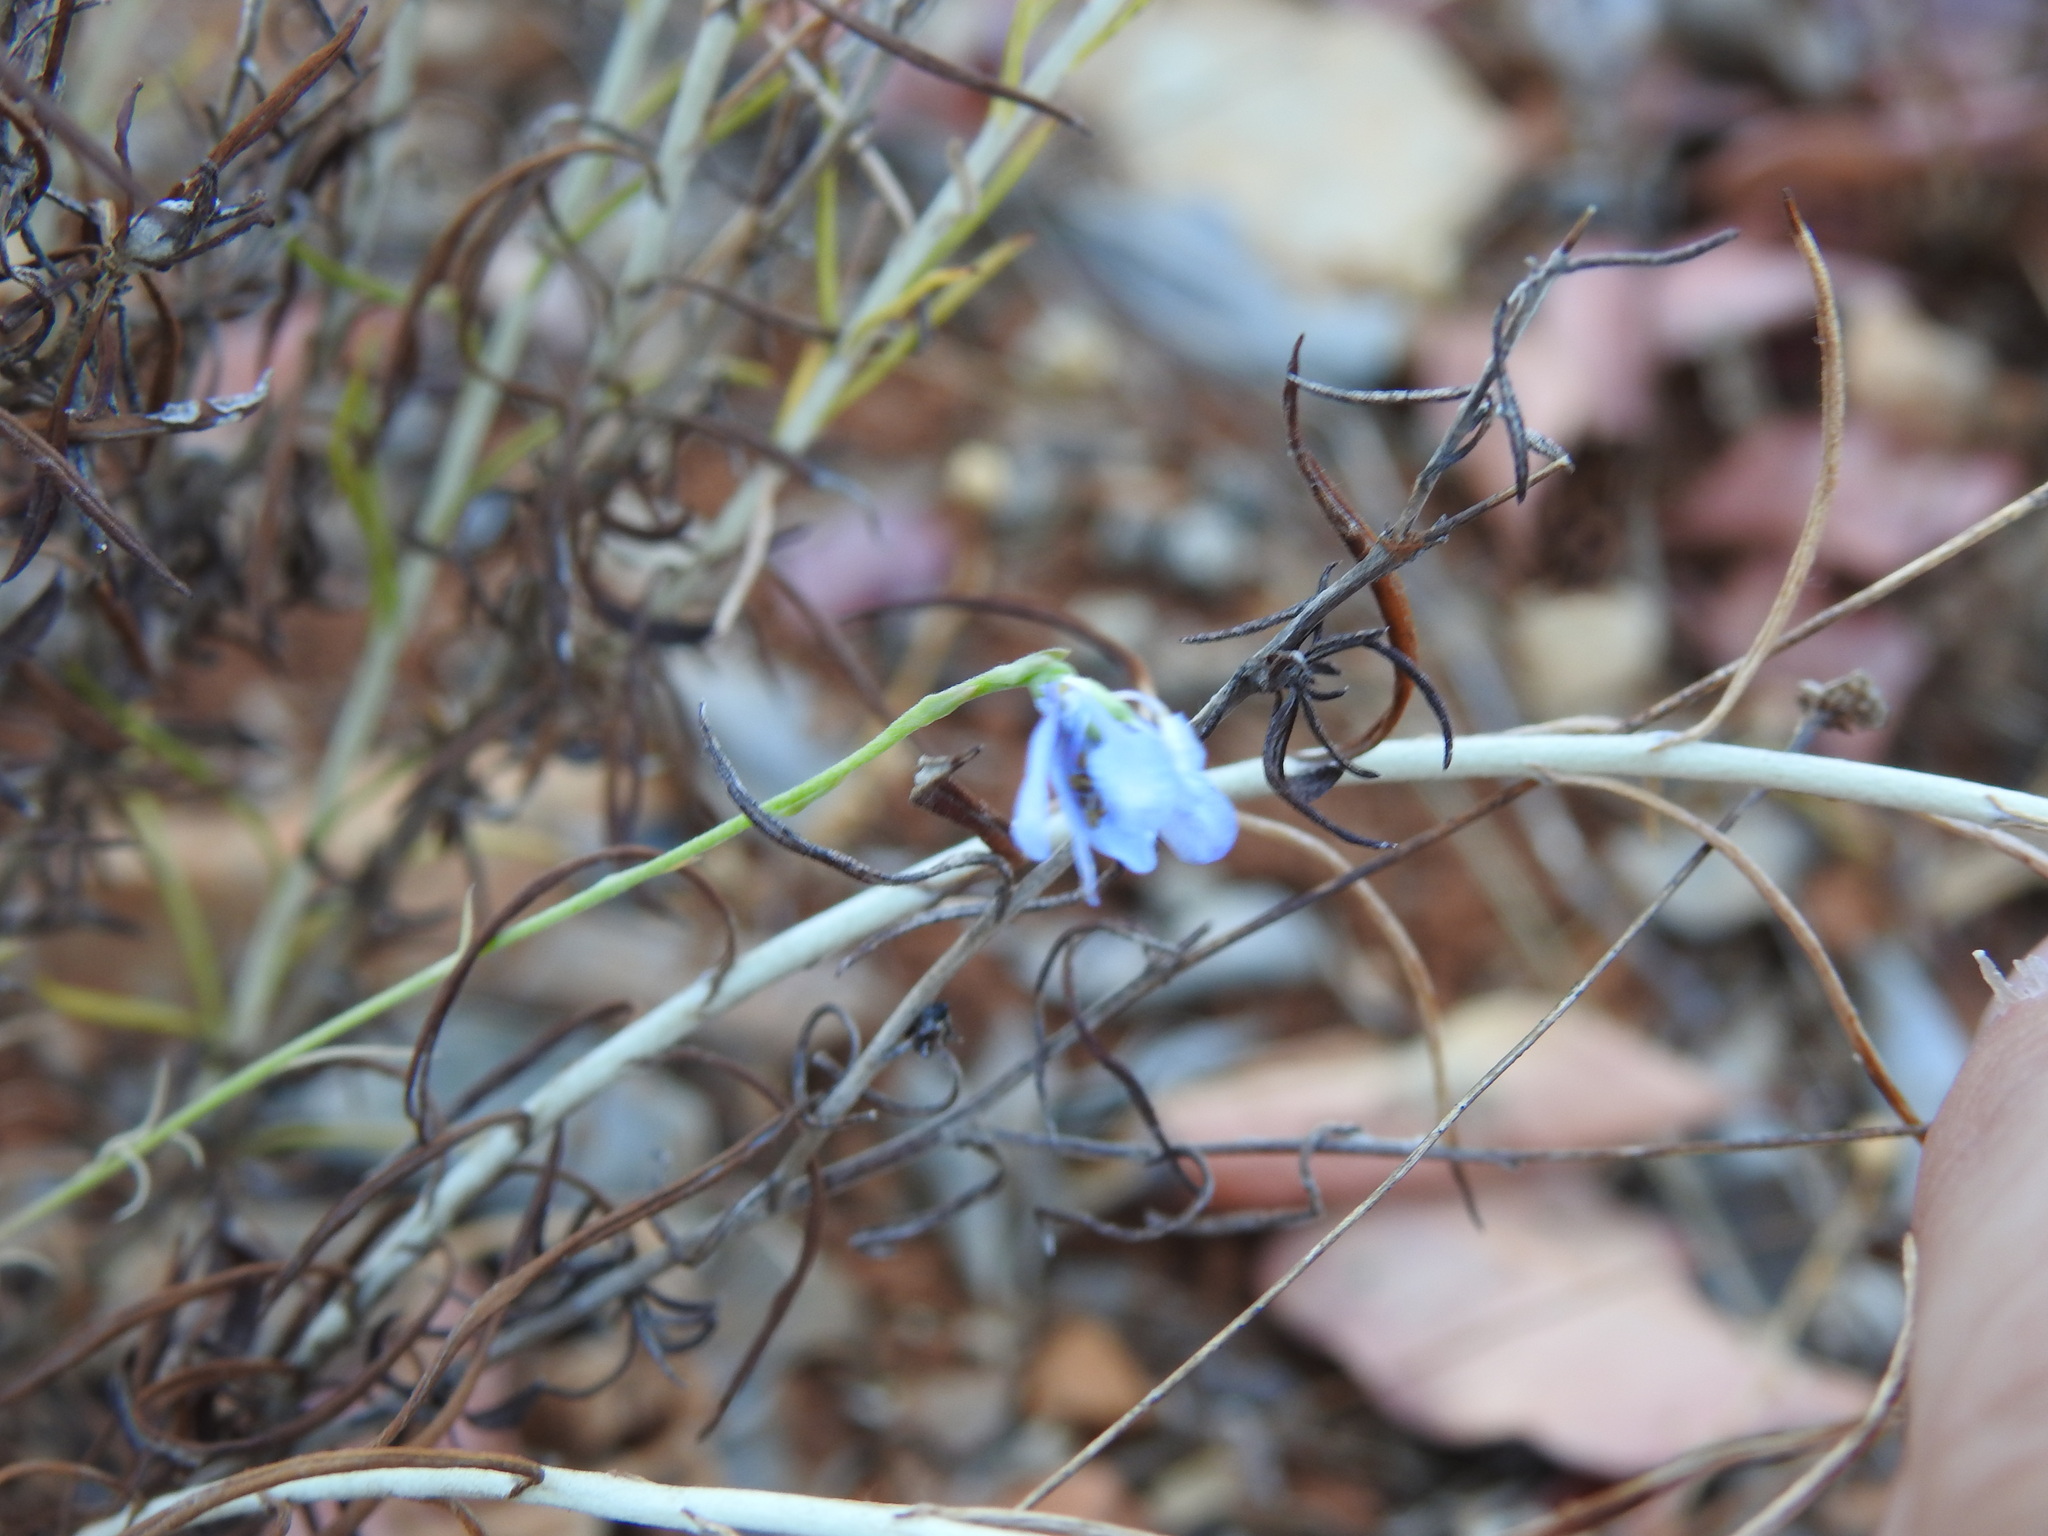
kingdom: Plantae
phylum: Tracheophyta
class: Magnoliopsida
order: Ranunculales
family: Ranunculaceae
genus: Delphinium
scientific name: Delphinium gracile
